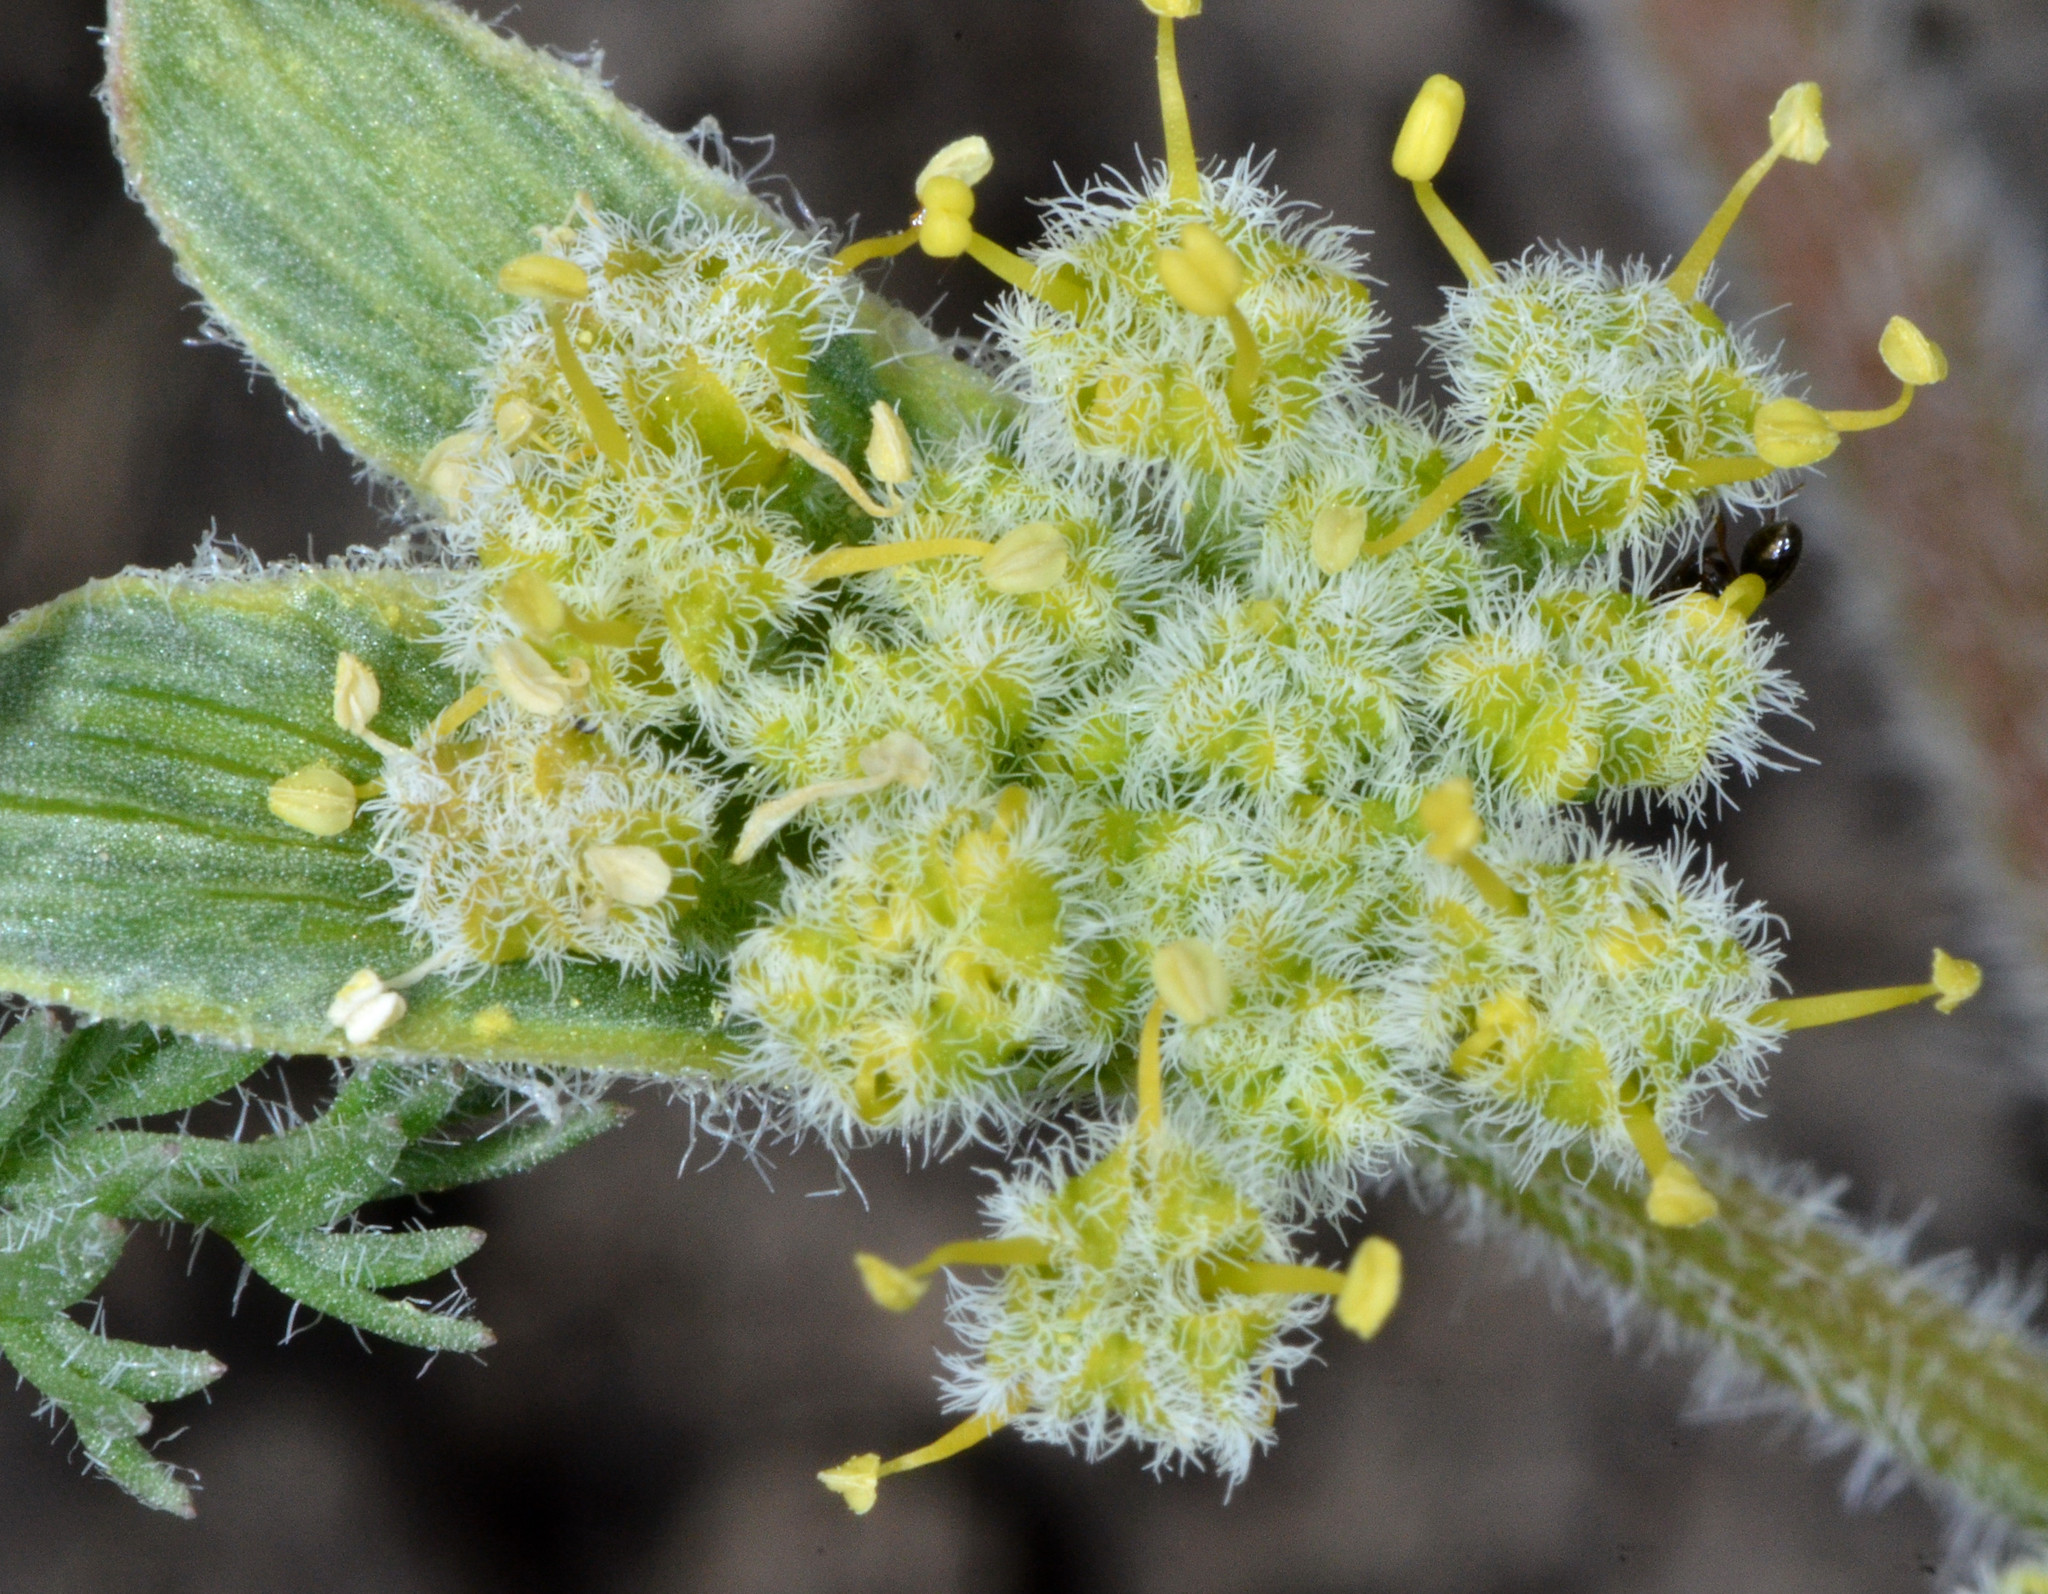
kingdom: Plantae
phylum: Tracheophyta
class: Magnoliopsida
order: Apiales
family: Apiaceae
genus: Lomatium
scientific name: Lomatium dasycarpum
